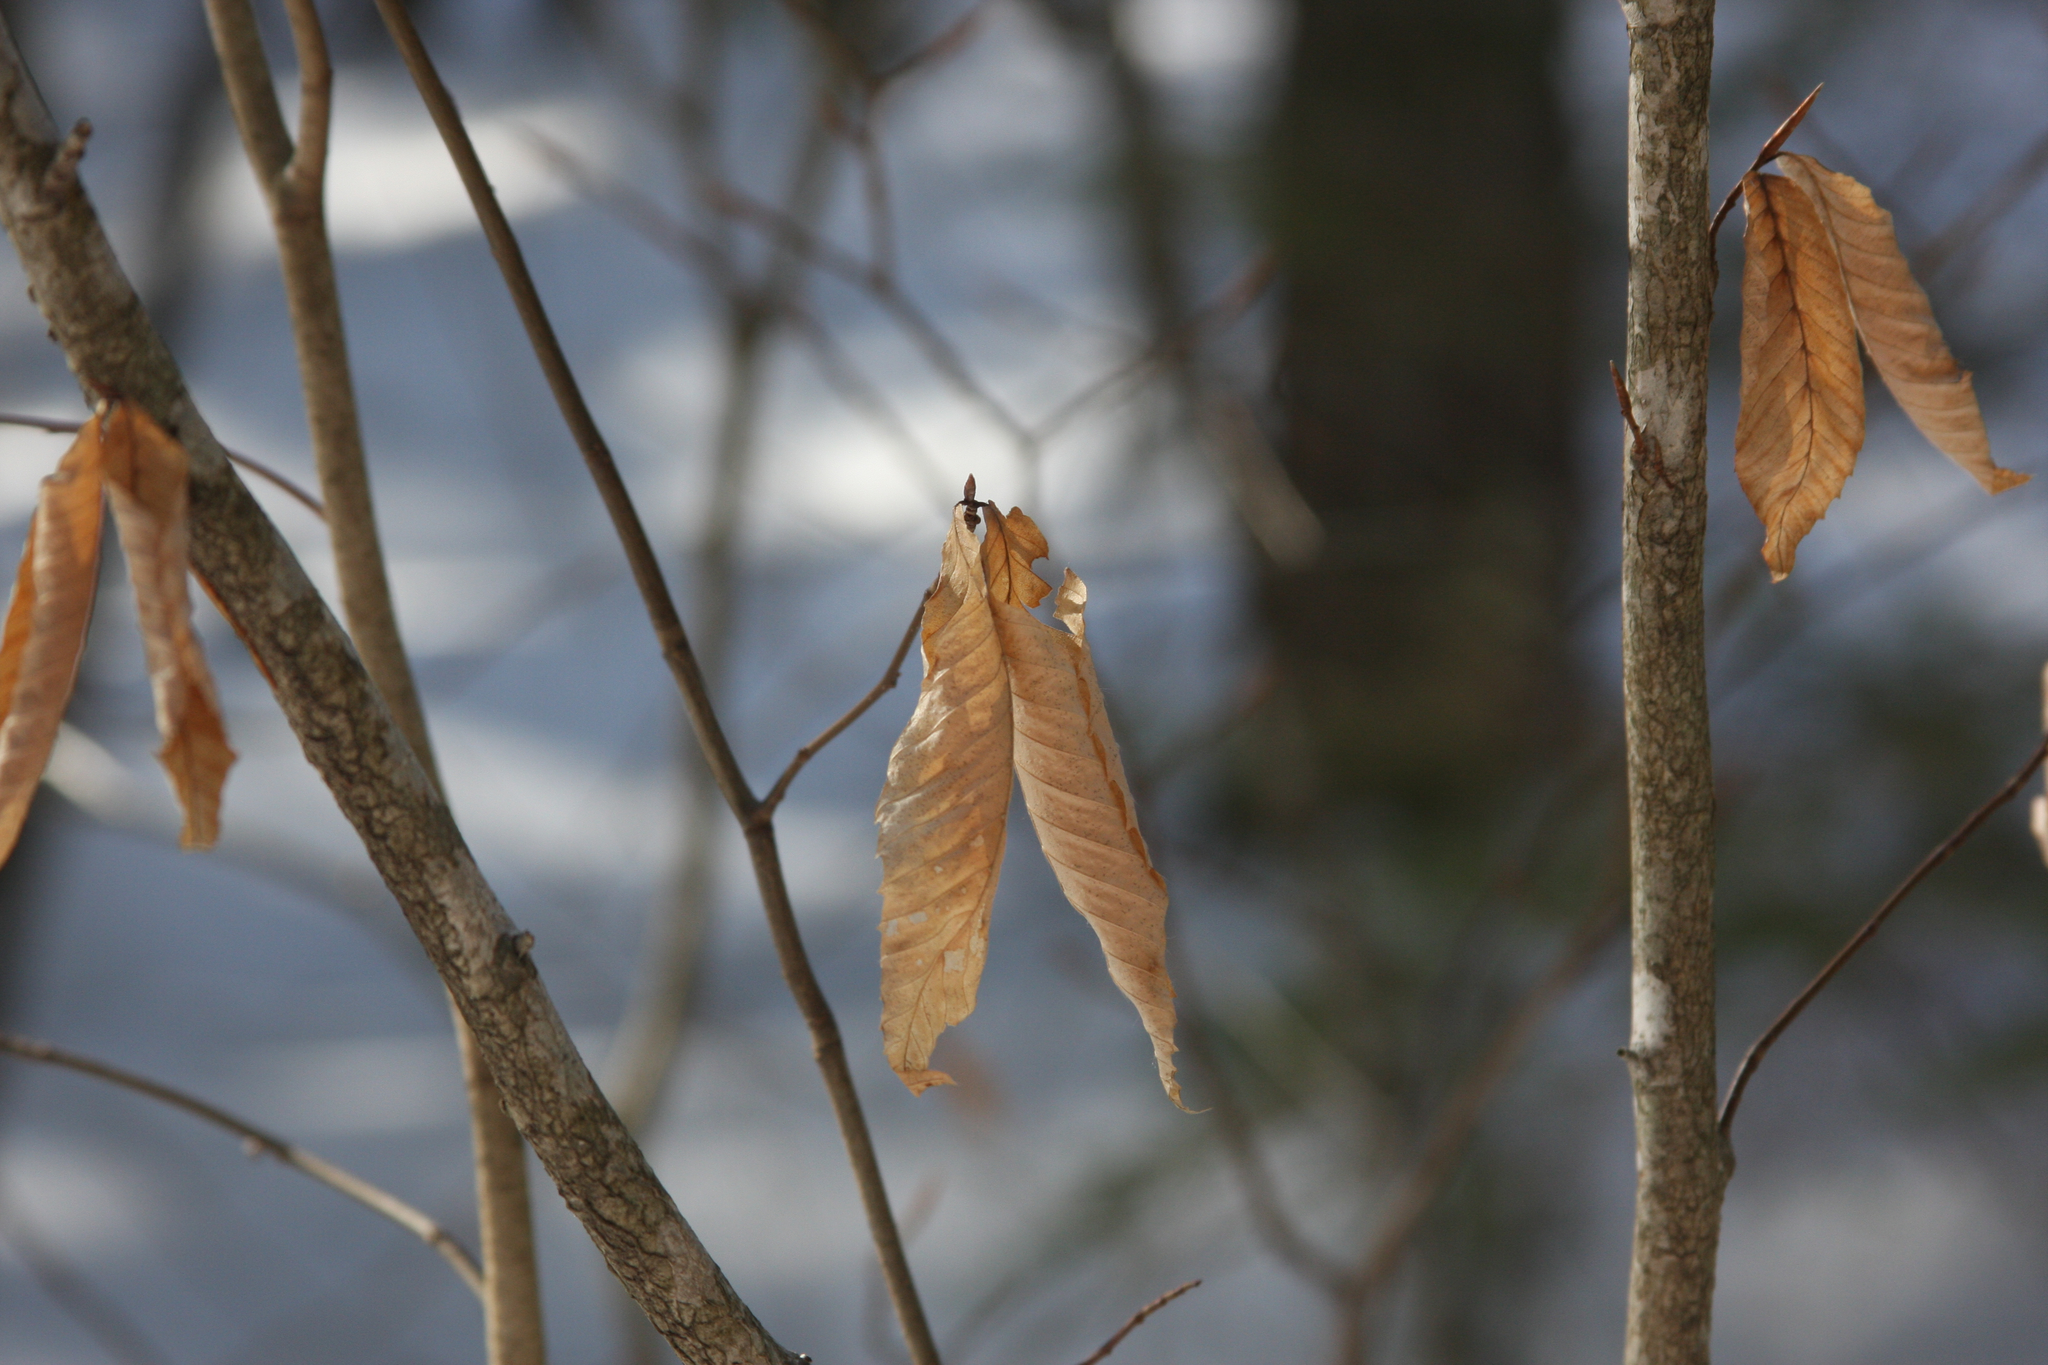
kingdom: Plantae
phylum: Tracheophyta
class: Magnoliopsida
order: Fagales
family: Fagaceae
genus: Fagus
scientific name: Fagus grandifolia
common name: American beech
